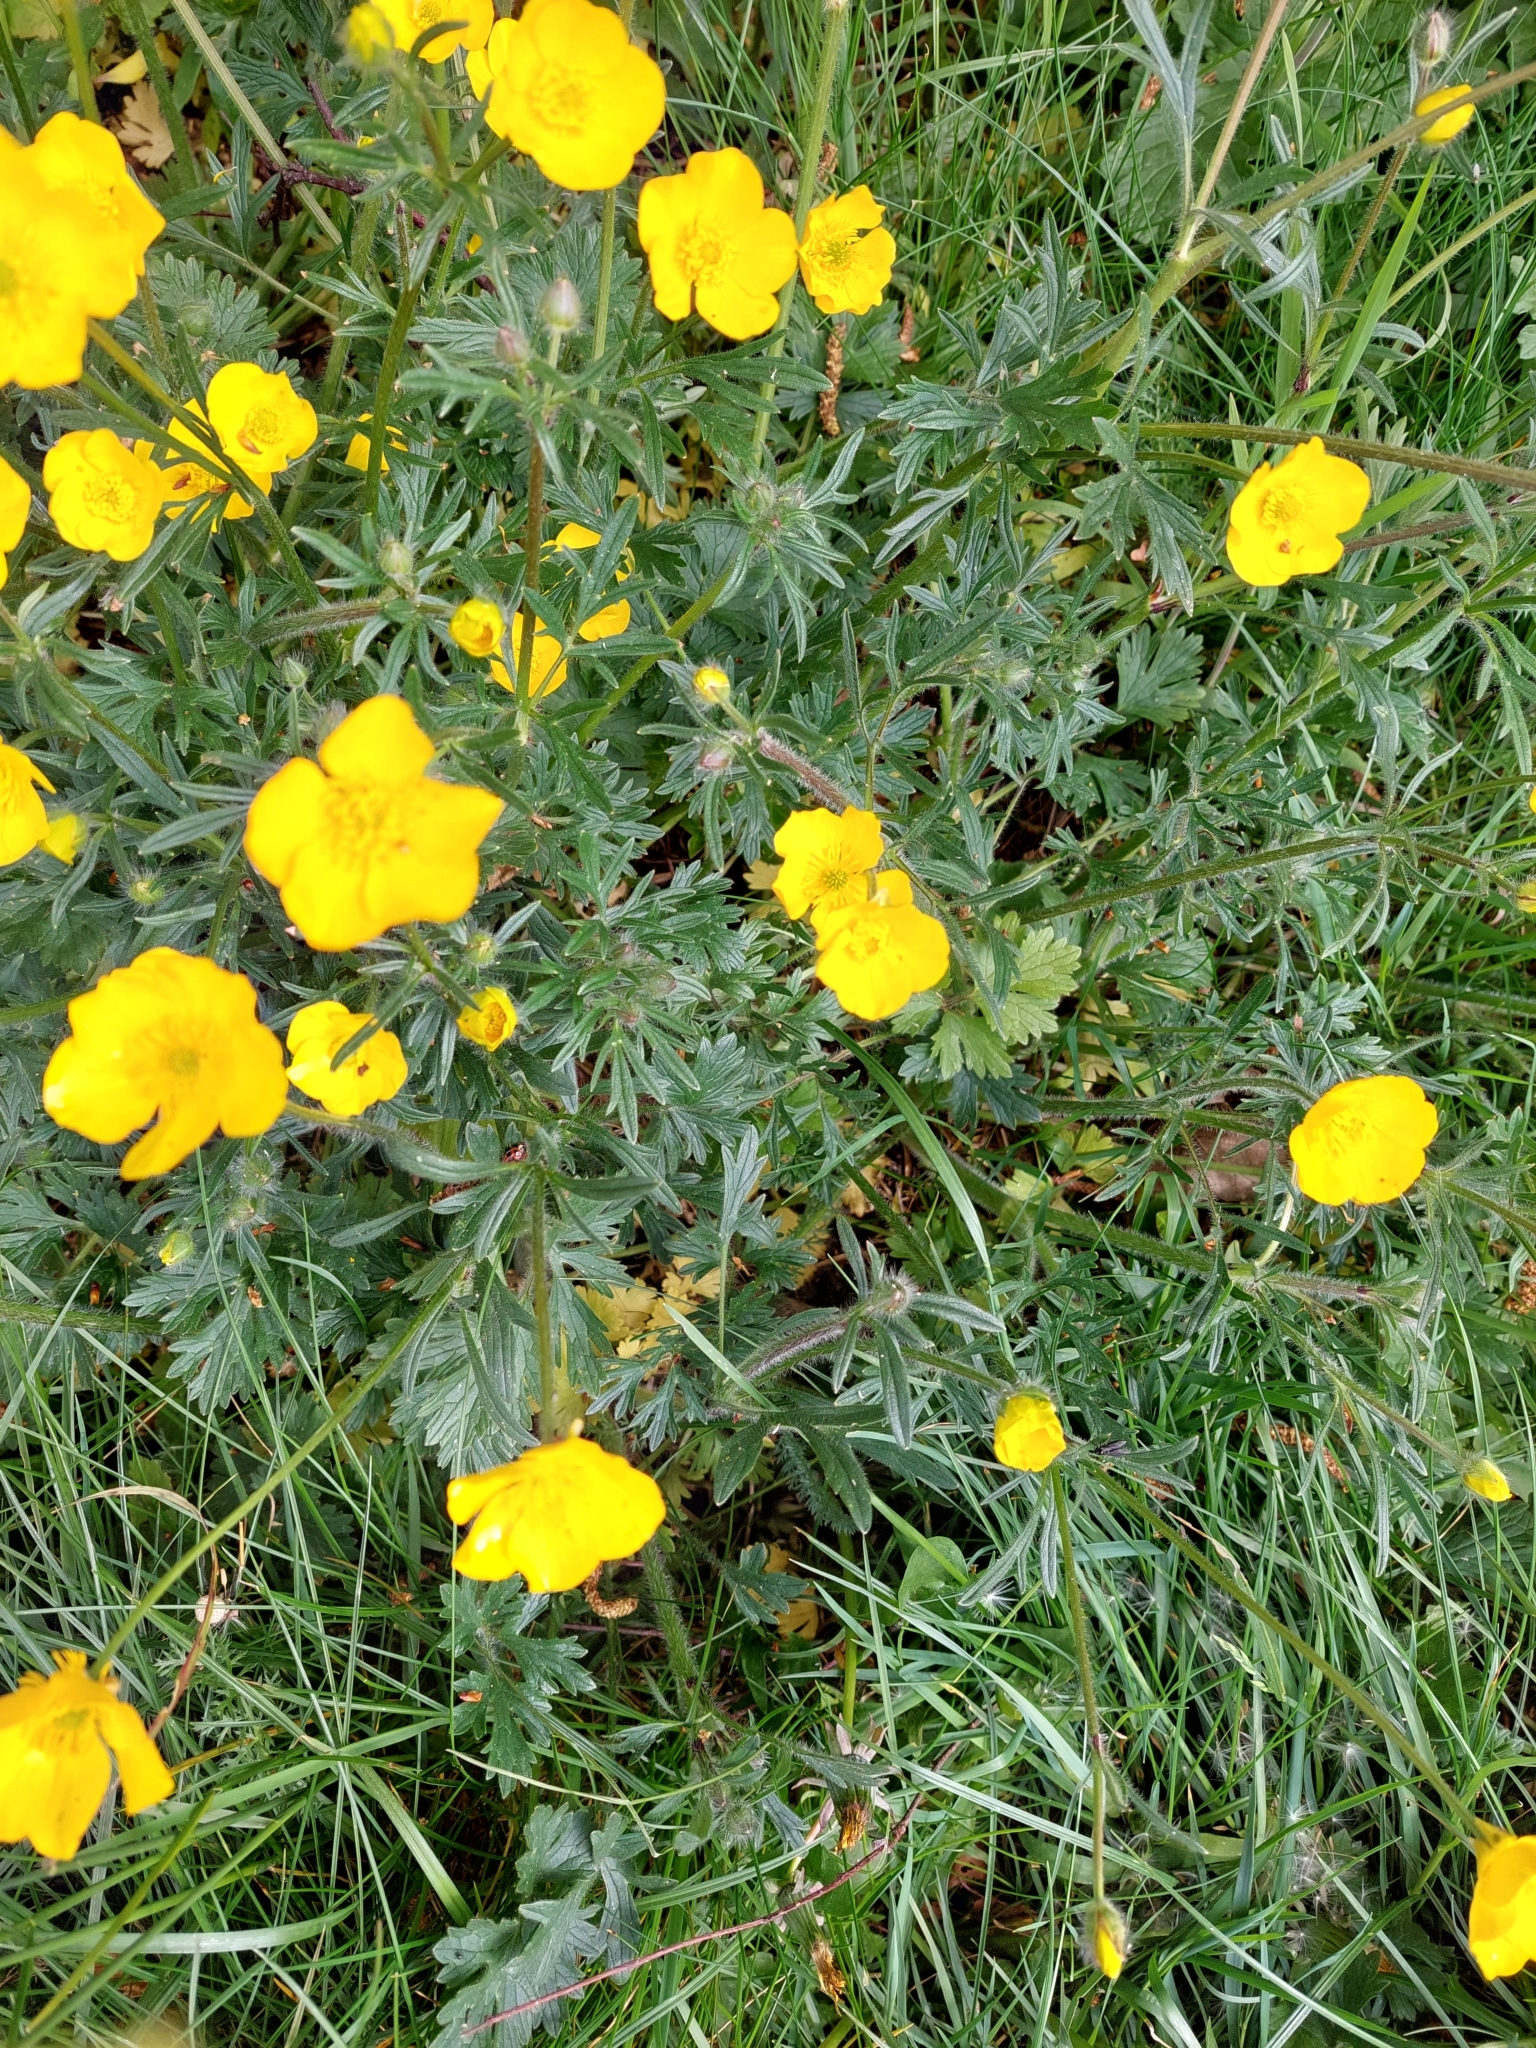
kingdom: Plantae
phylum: Tracheophyta
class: Magnoliopsida
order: Ranunculales
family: Ranunculaceae
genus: Ranunculus
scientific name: Ranunculus bulbosus
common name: Bulbous buttercup
